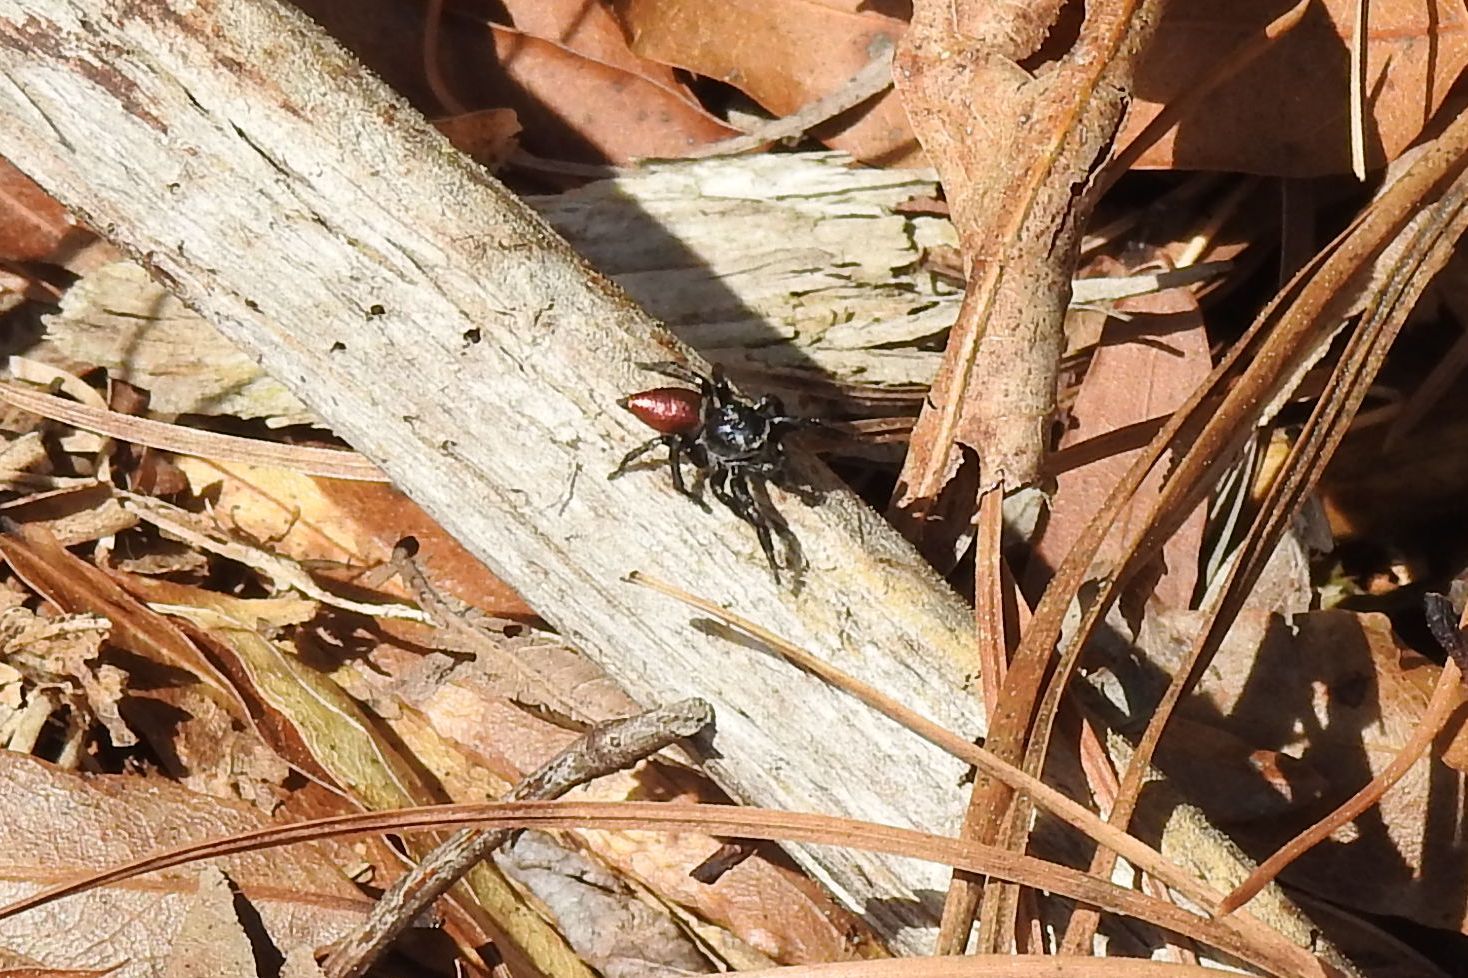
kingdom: Animalia
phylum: Arthropoda
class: Arachnida
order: Araneae
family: Salticidae
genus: Habronattus
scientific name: Habronattus decorus
